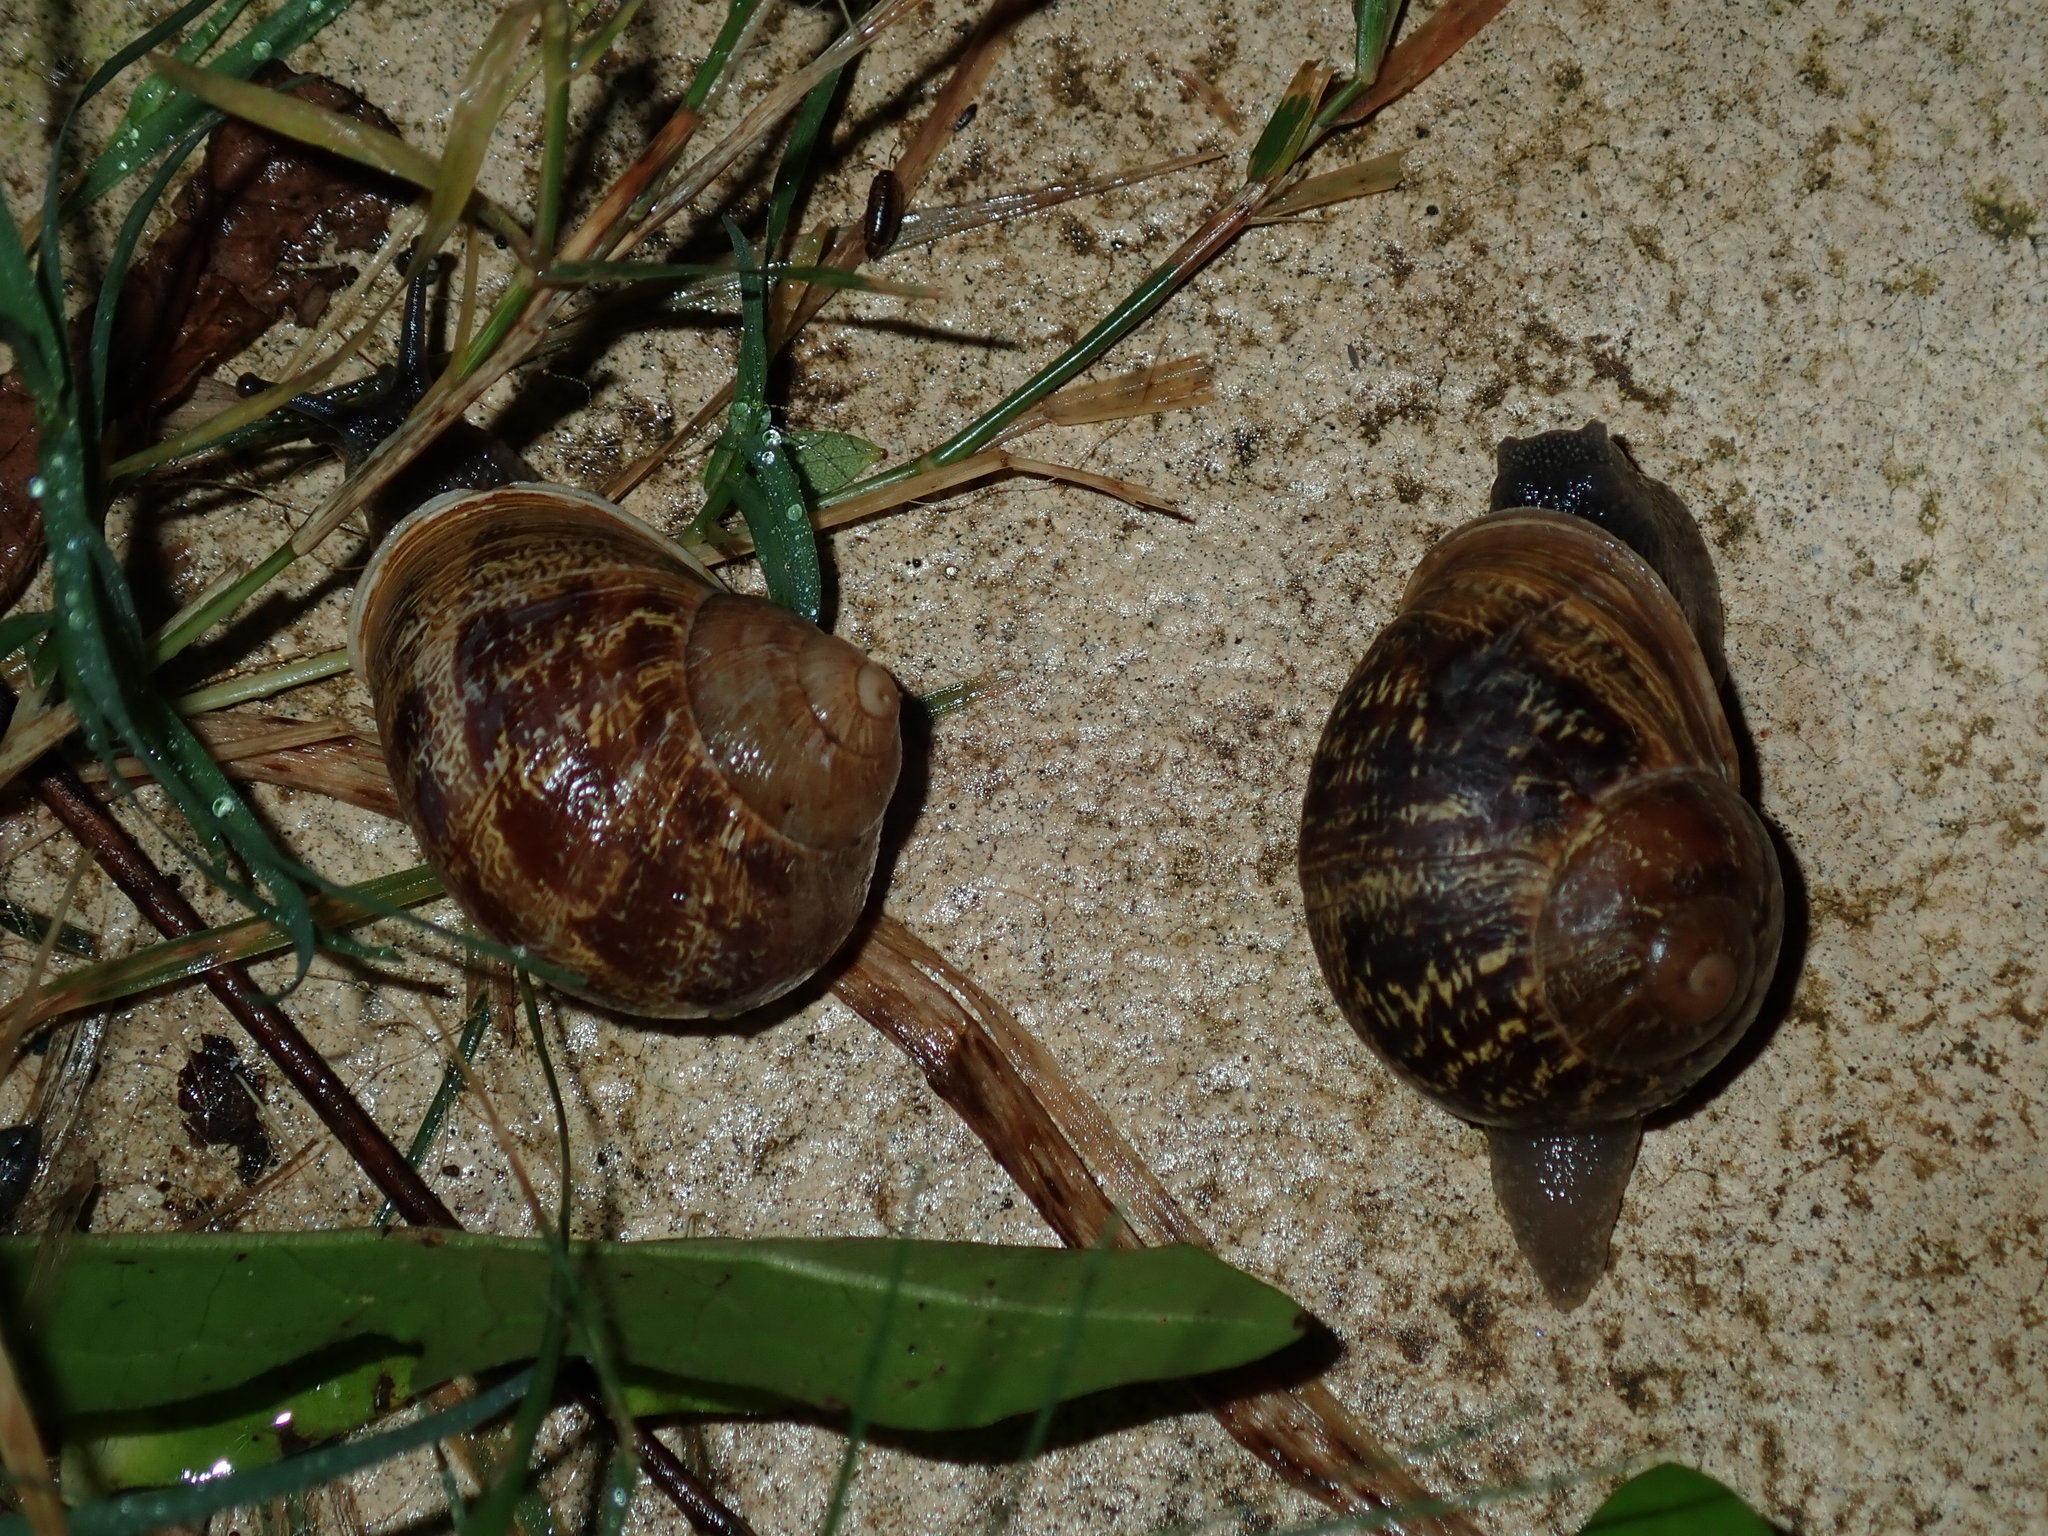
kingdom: Animalia
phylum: Mollusca
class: Gastropoda
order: Stylommatophora
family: Helicidae
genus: Cornu
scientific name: Cornu aspersum
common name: Brown garden snail
